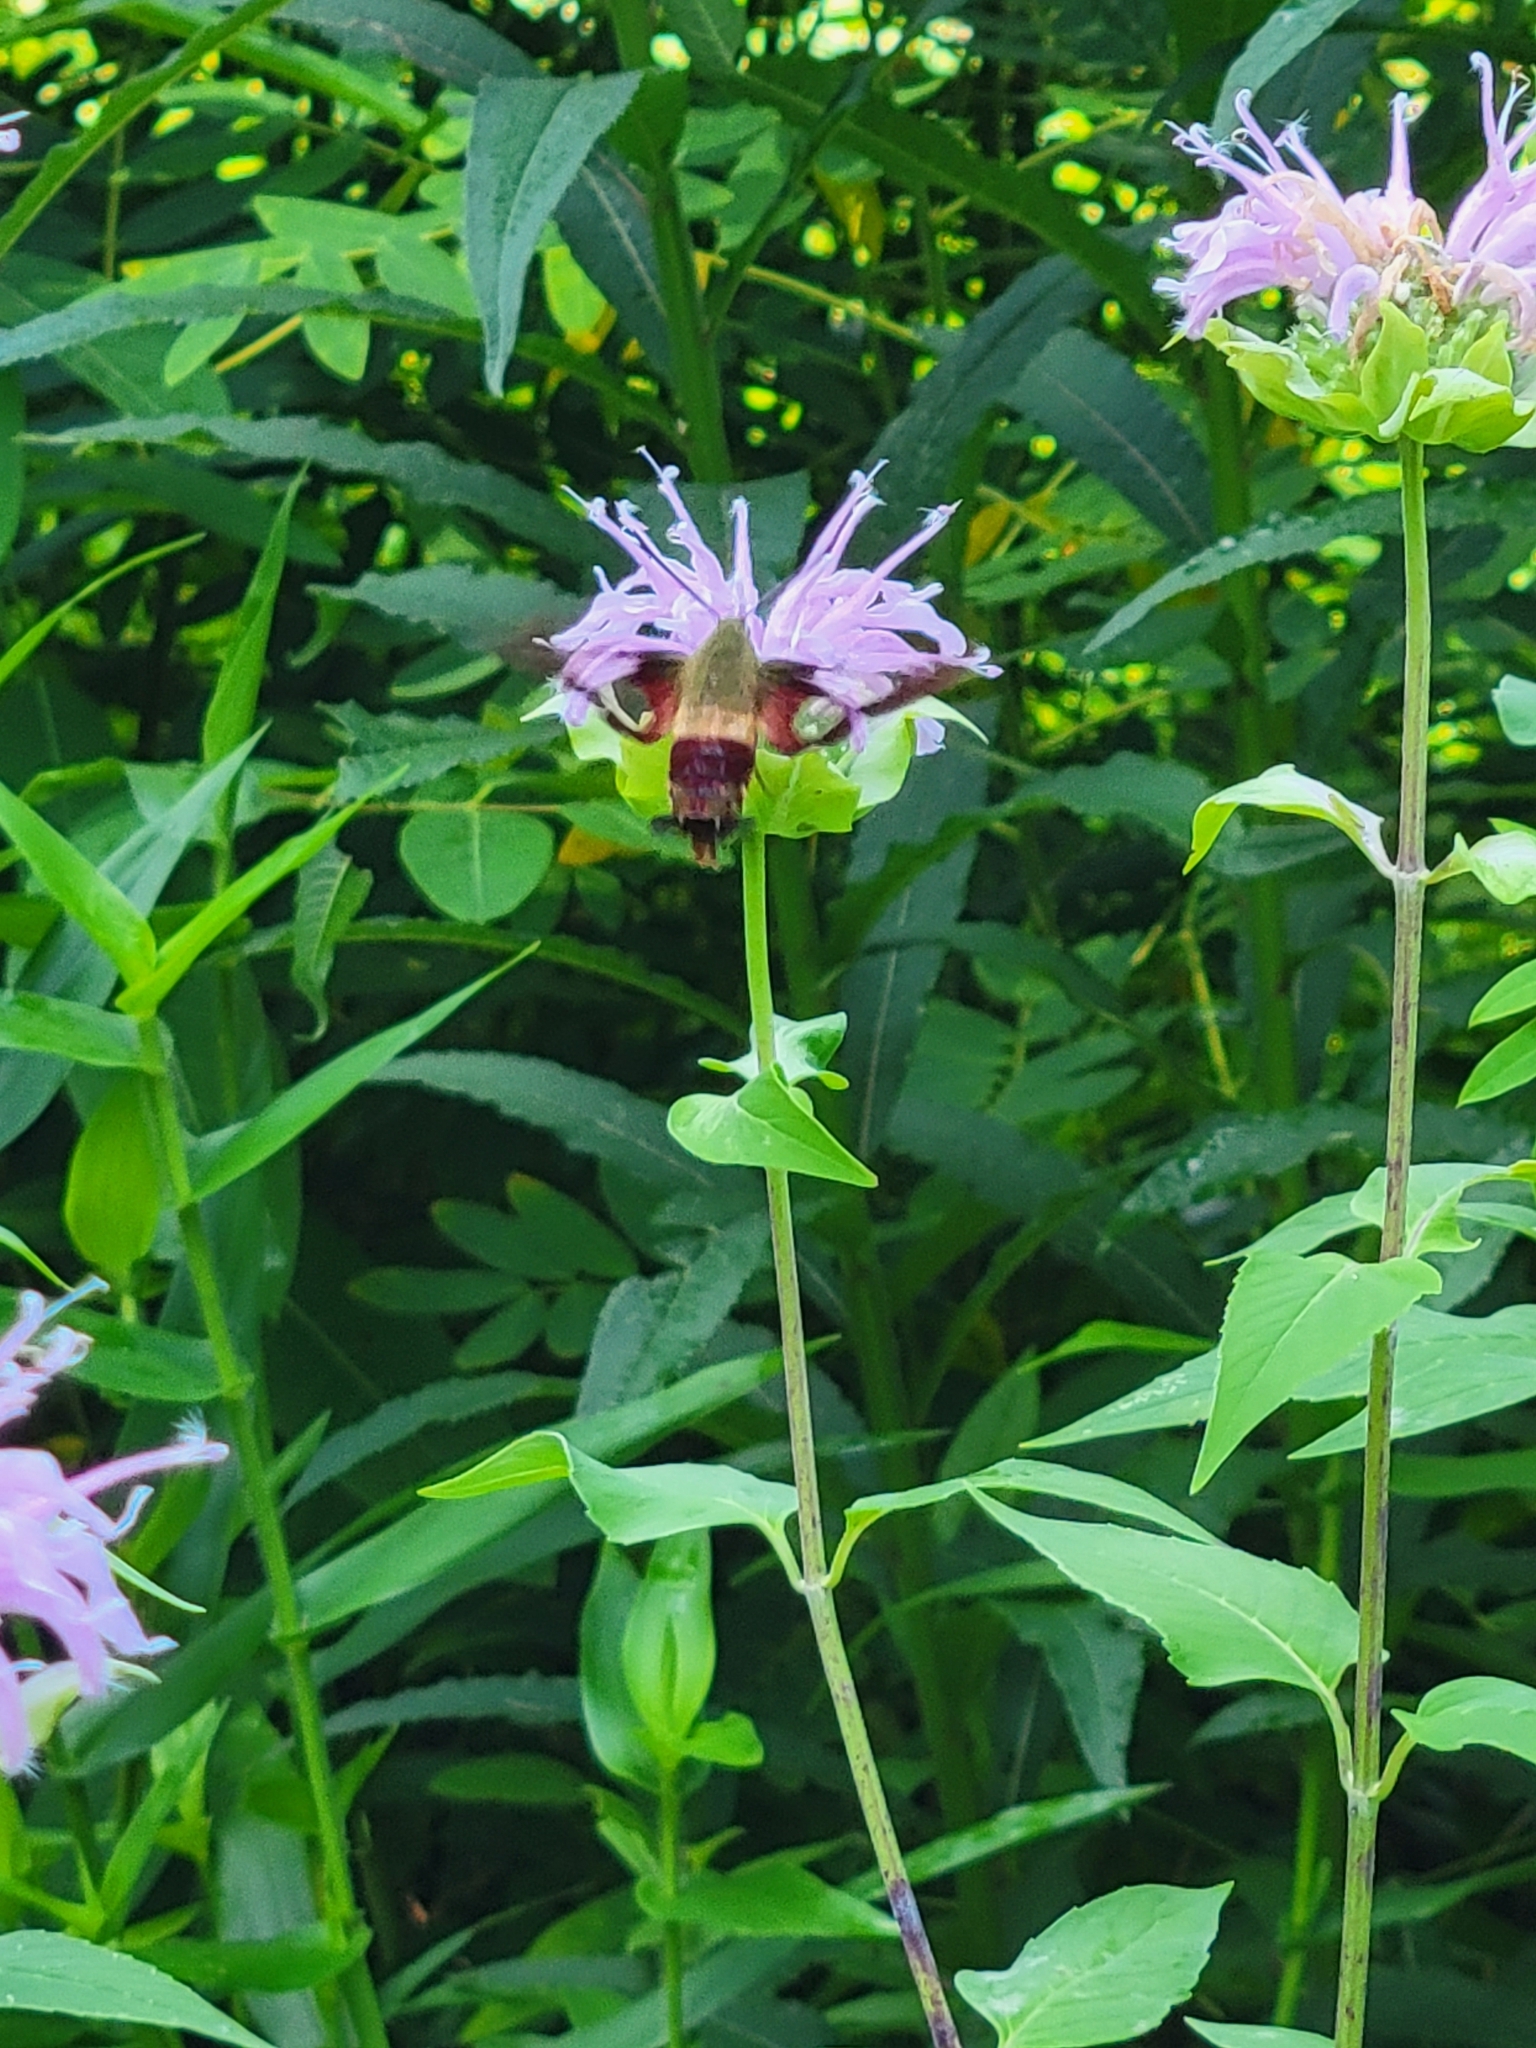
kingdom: Animalia
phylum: Arthropoda
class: Insecta
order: Lepidoptera
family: Sphingidae
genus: Hemaris
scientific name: Hemaris thysbe
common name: Common clear-wing
